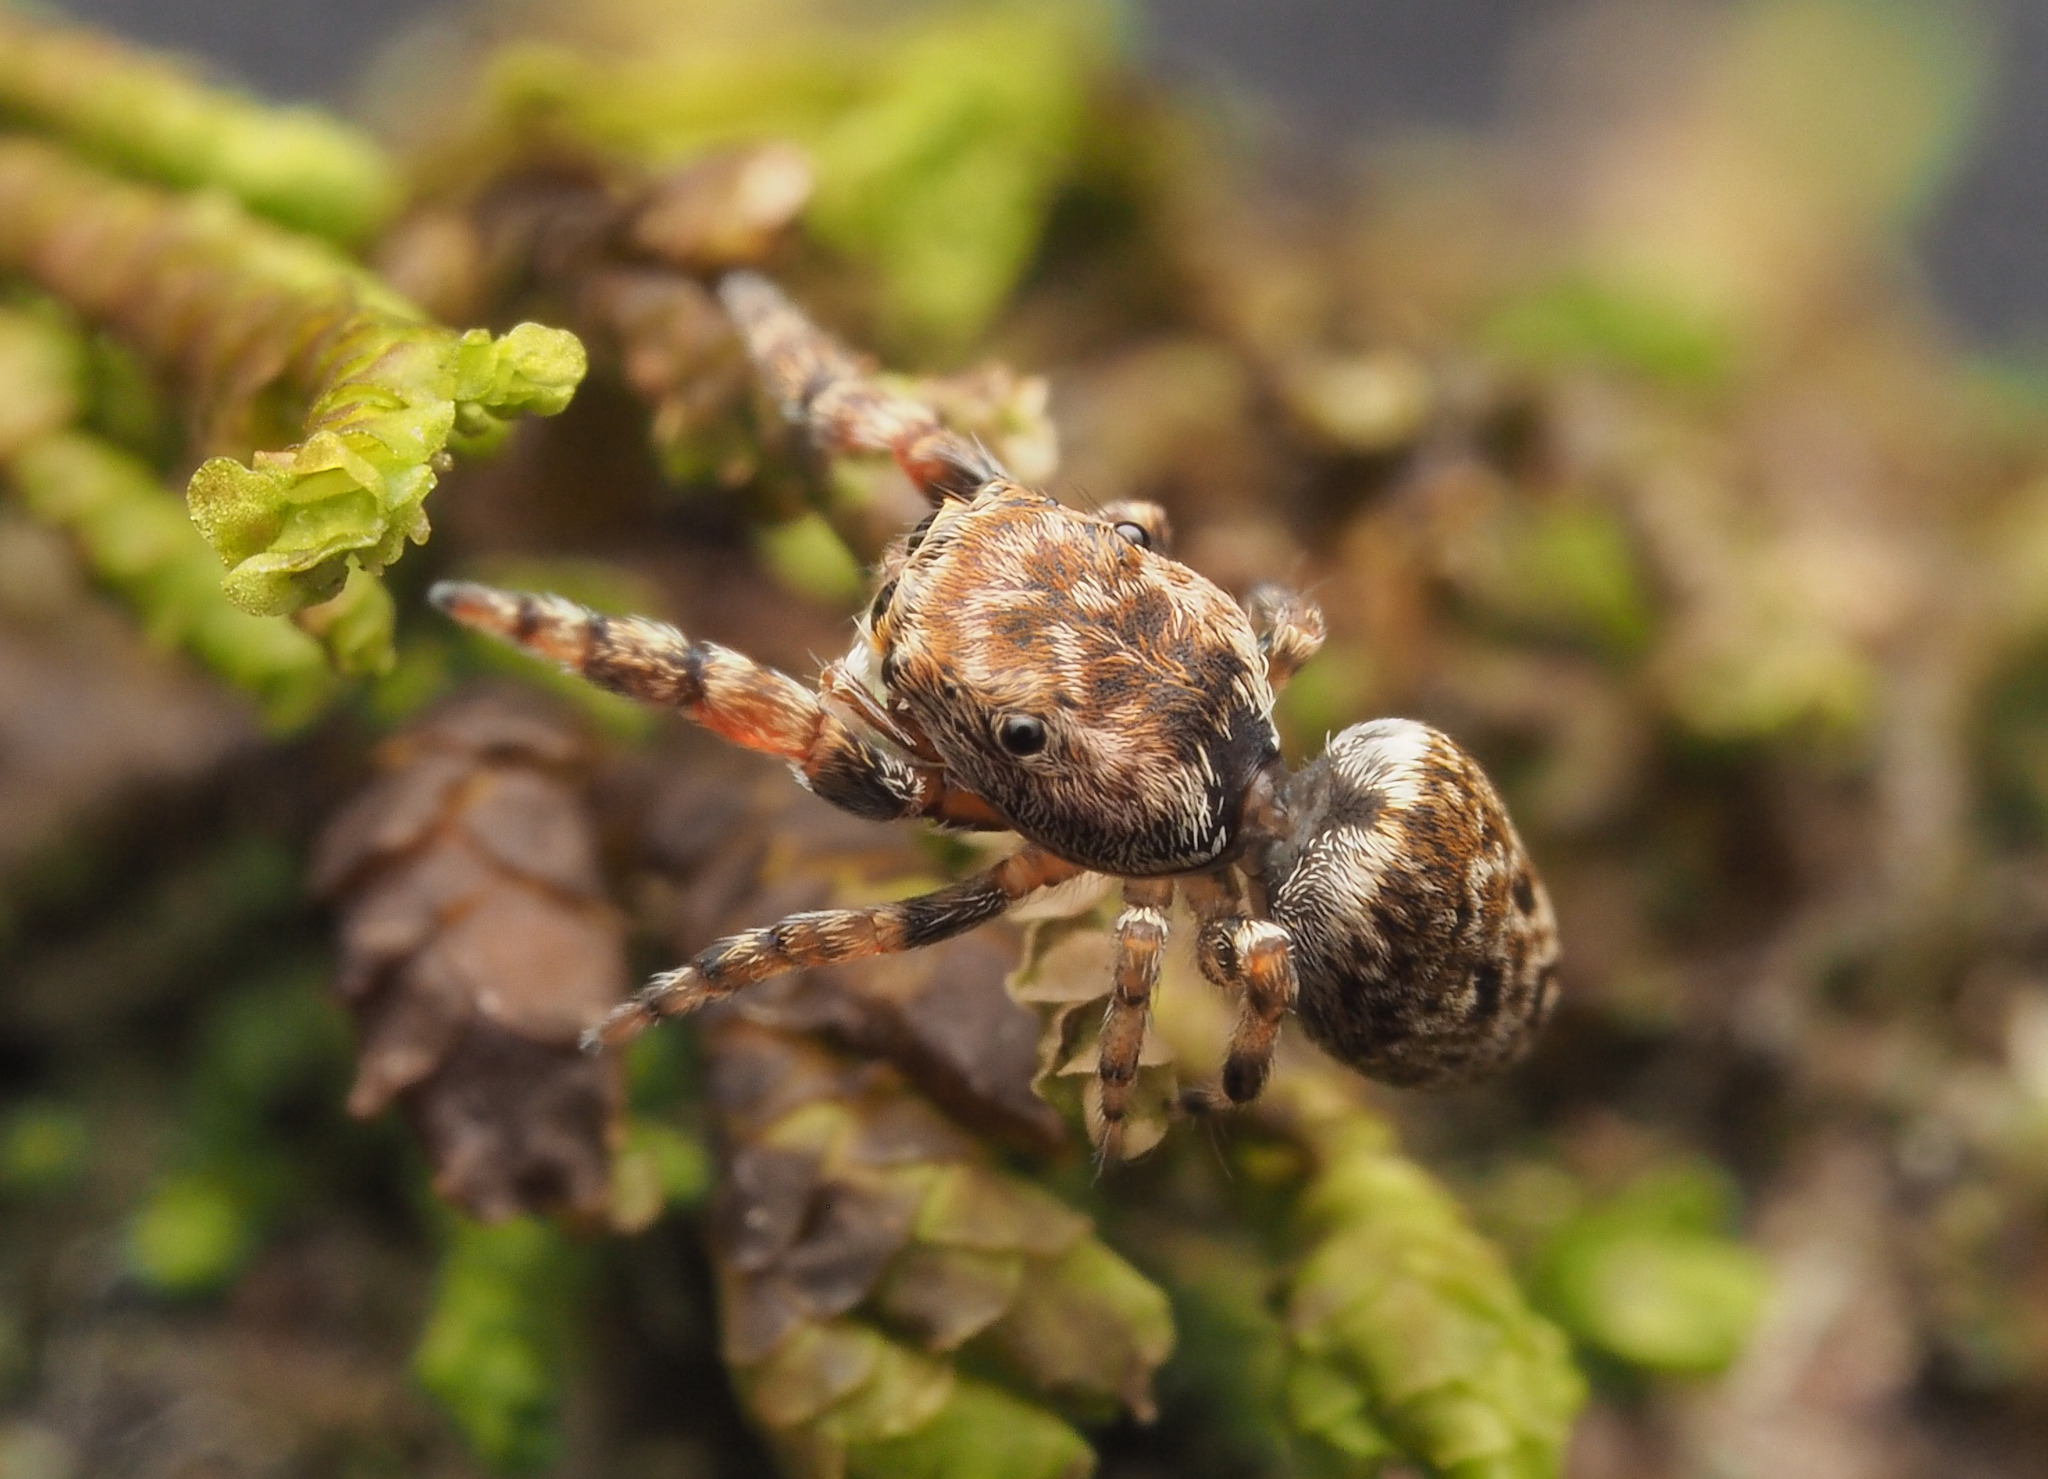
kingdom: Animalia
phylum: Arthropoda
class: Arachnida
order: Araneae
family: Salticidae
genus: Tara
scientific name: Tara
